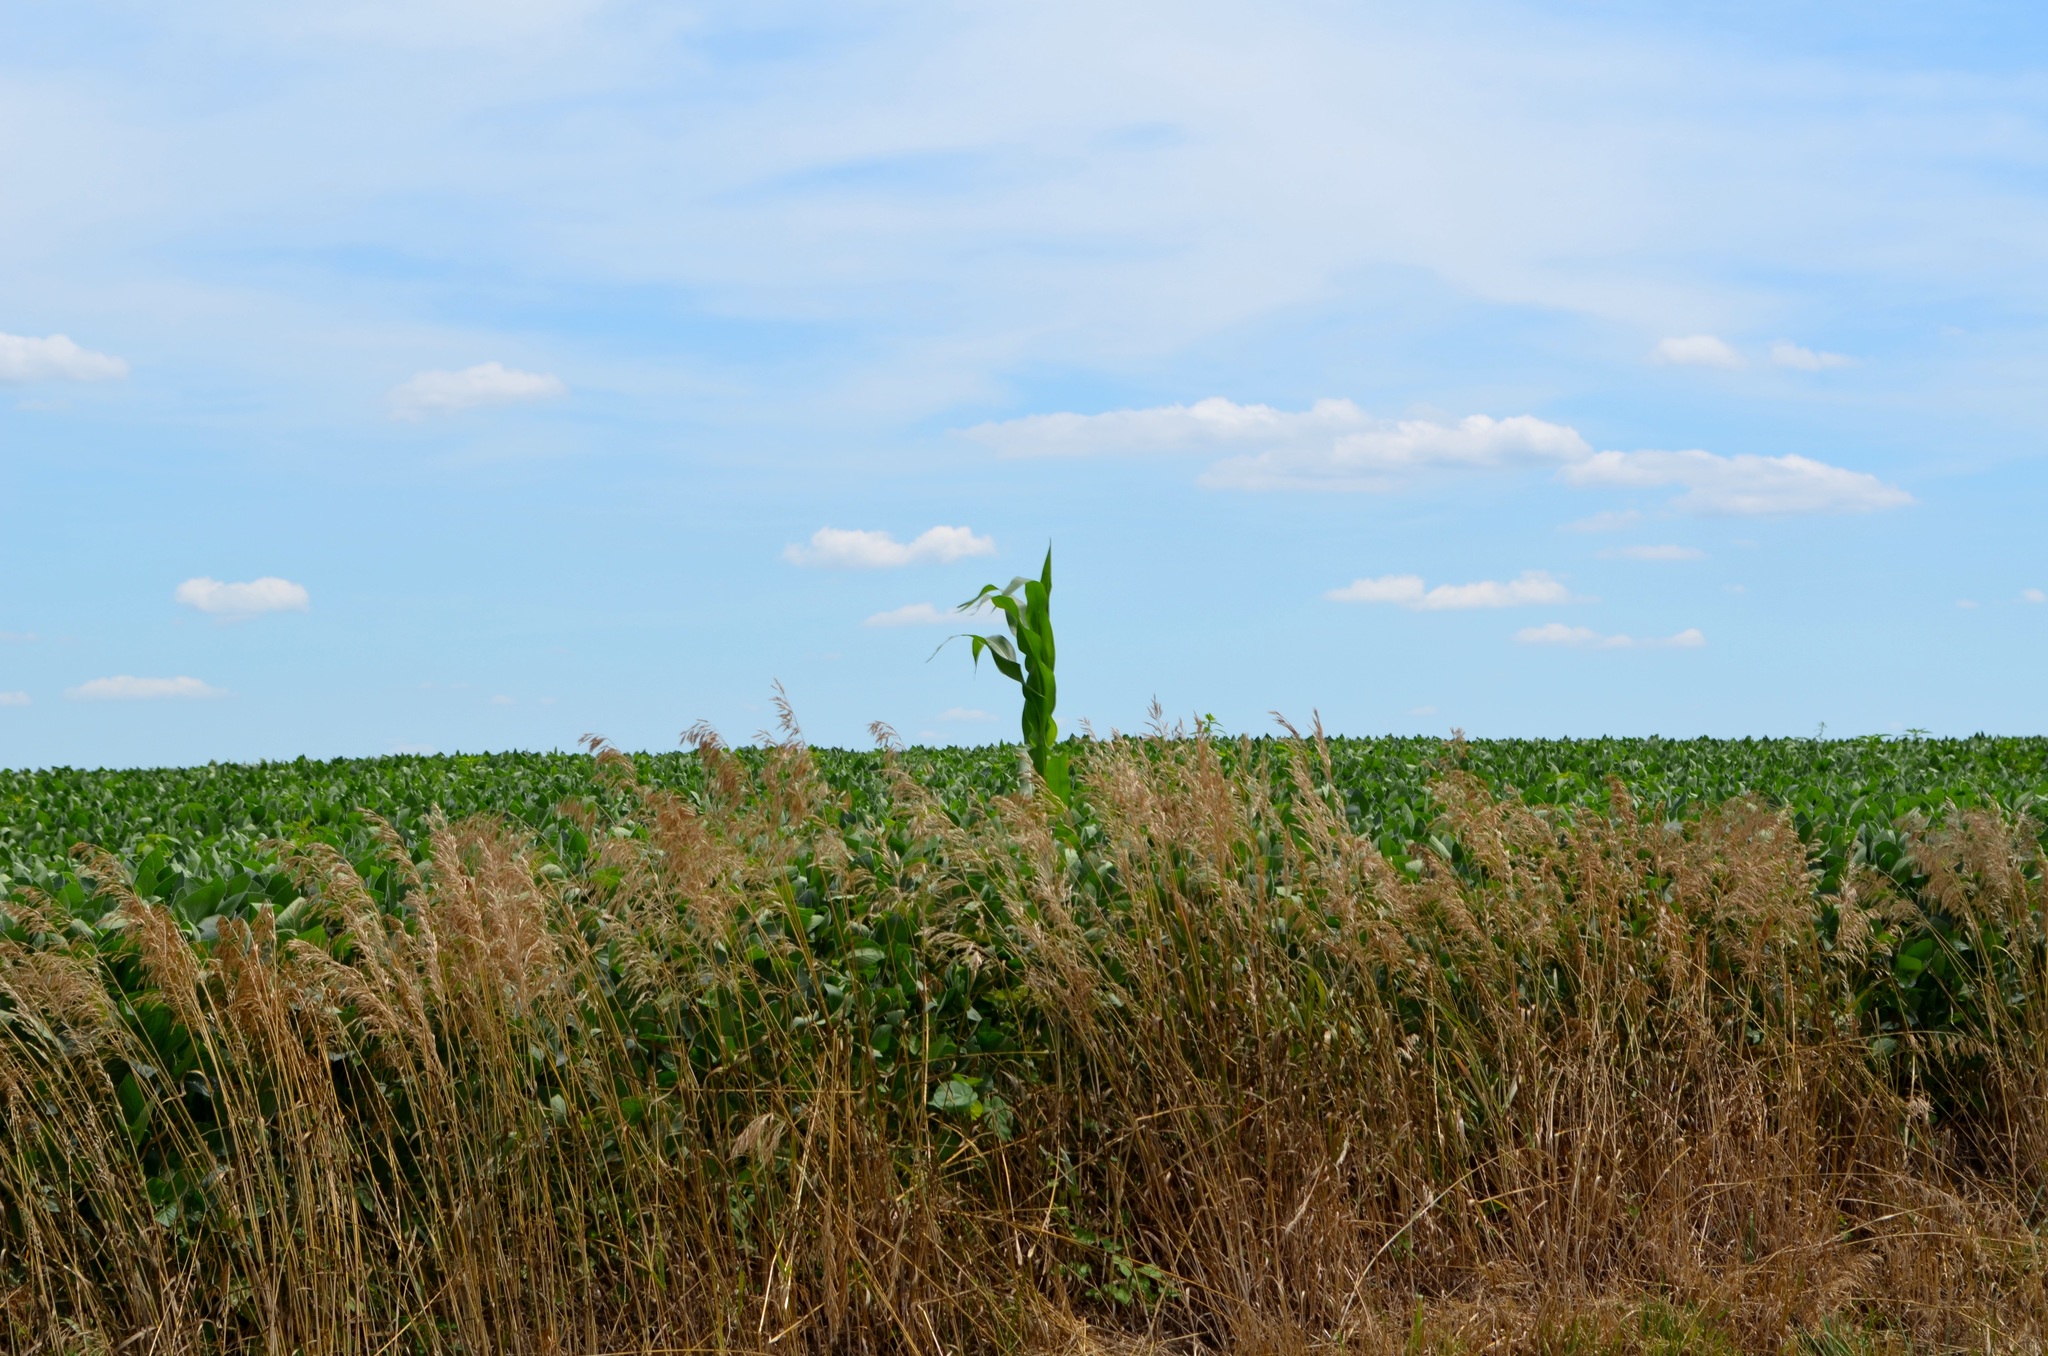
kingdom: Plantae
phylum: Tracheophyta
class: Liliopsida
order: Poales
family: Poaceae
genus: Zea
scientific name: Zea mays
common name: Maize
